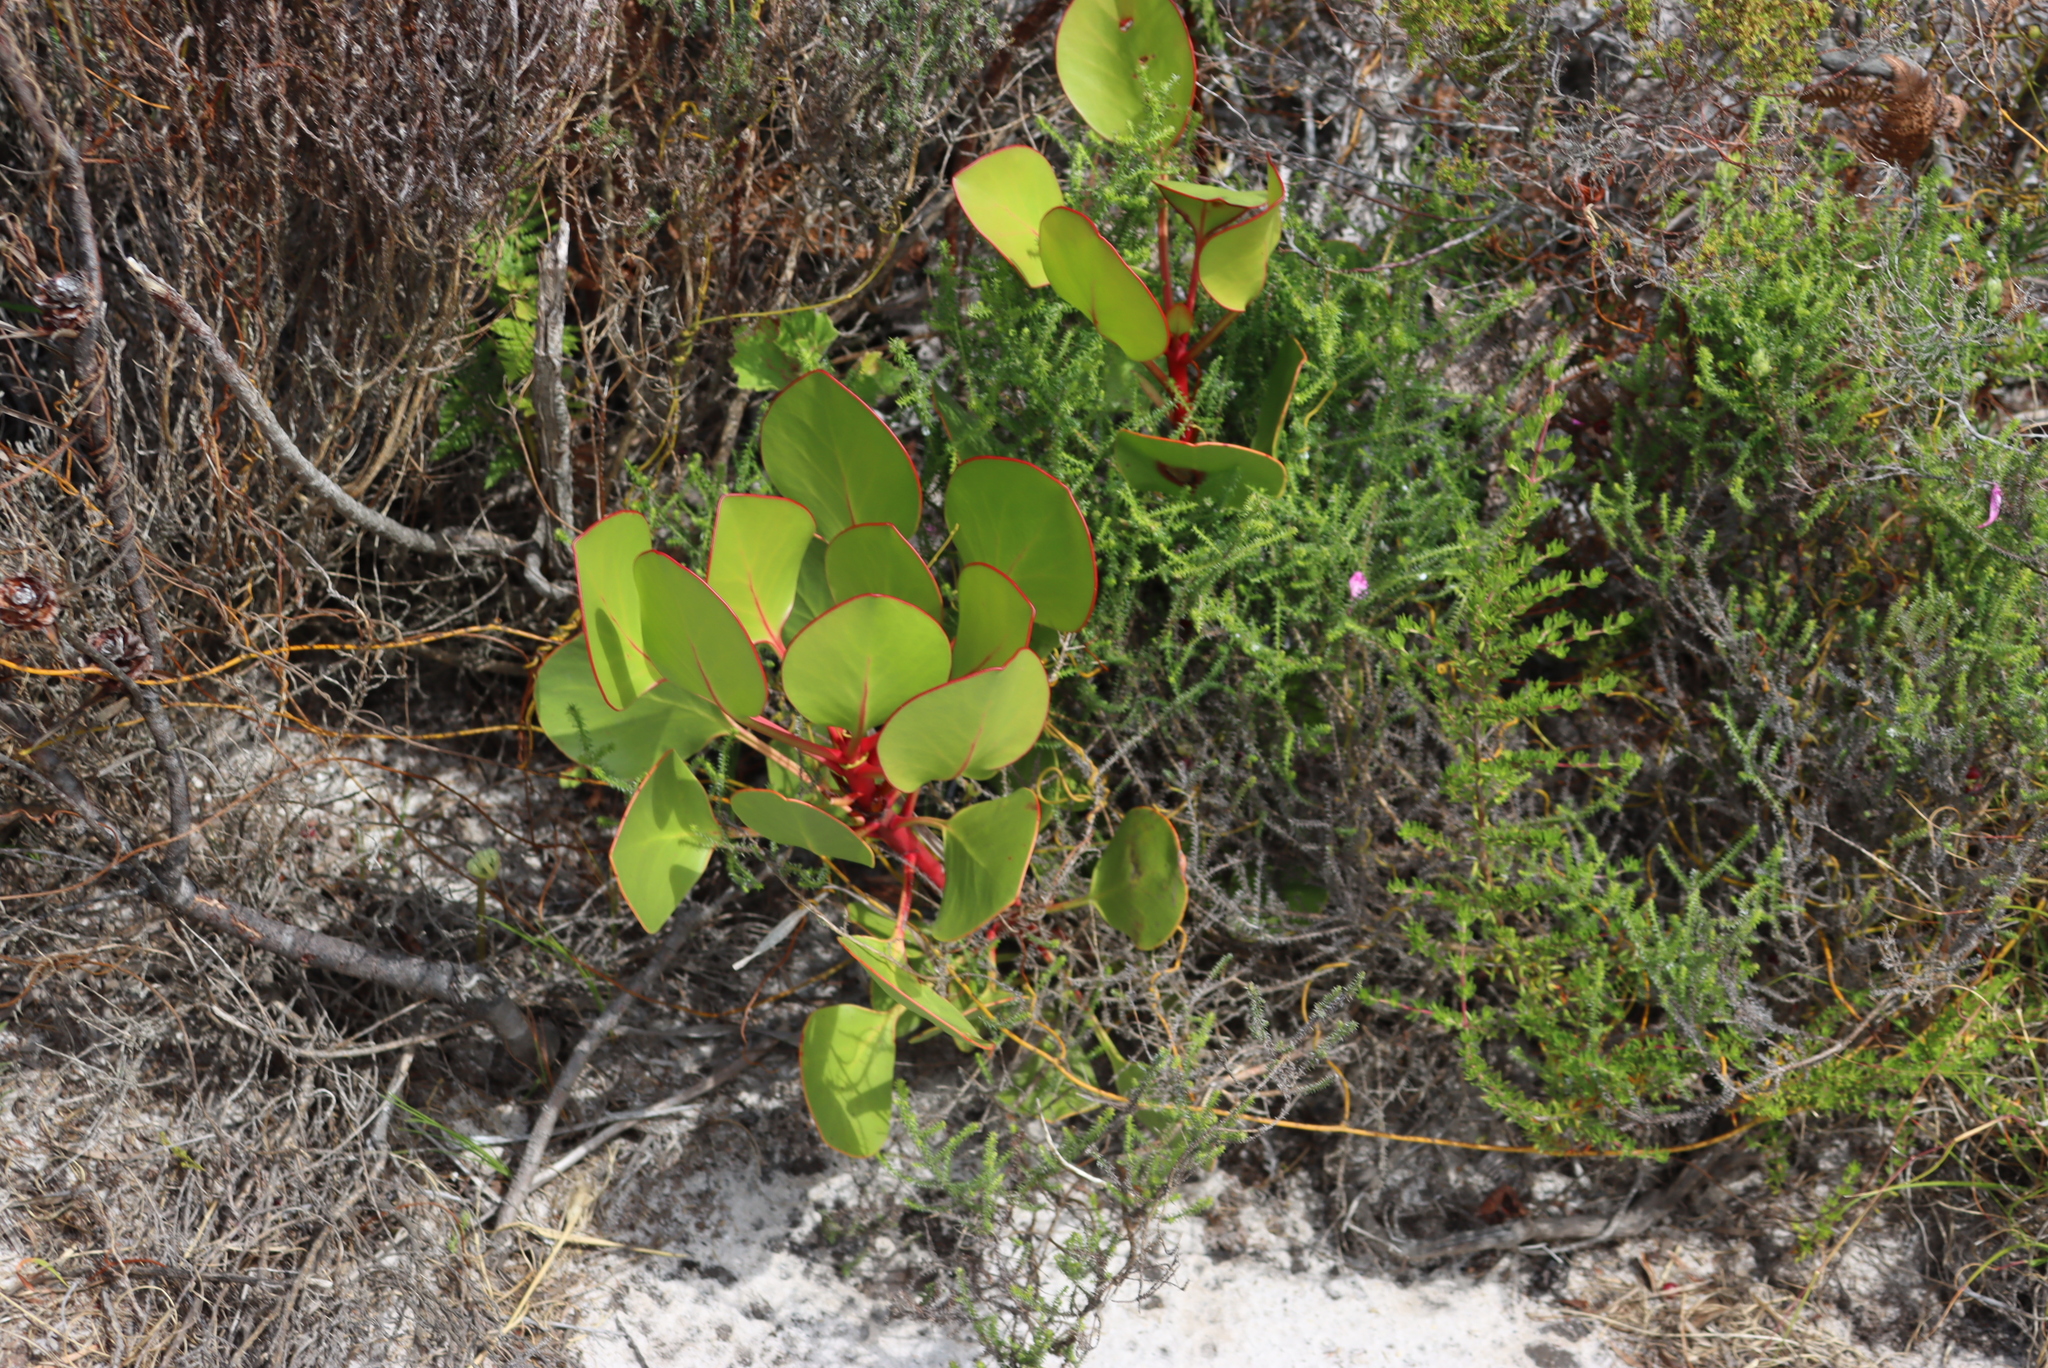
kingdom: Plantae
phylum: Tracheophyta
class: Magnoliopsida
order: Proteales
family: Proteaceae
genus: Protea
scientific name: Protea cynaroides
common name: King protea
